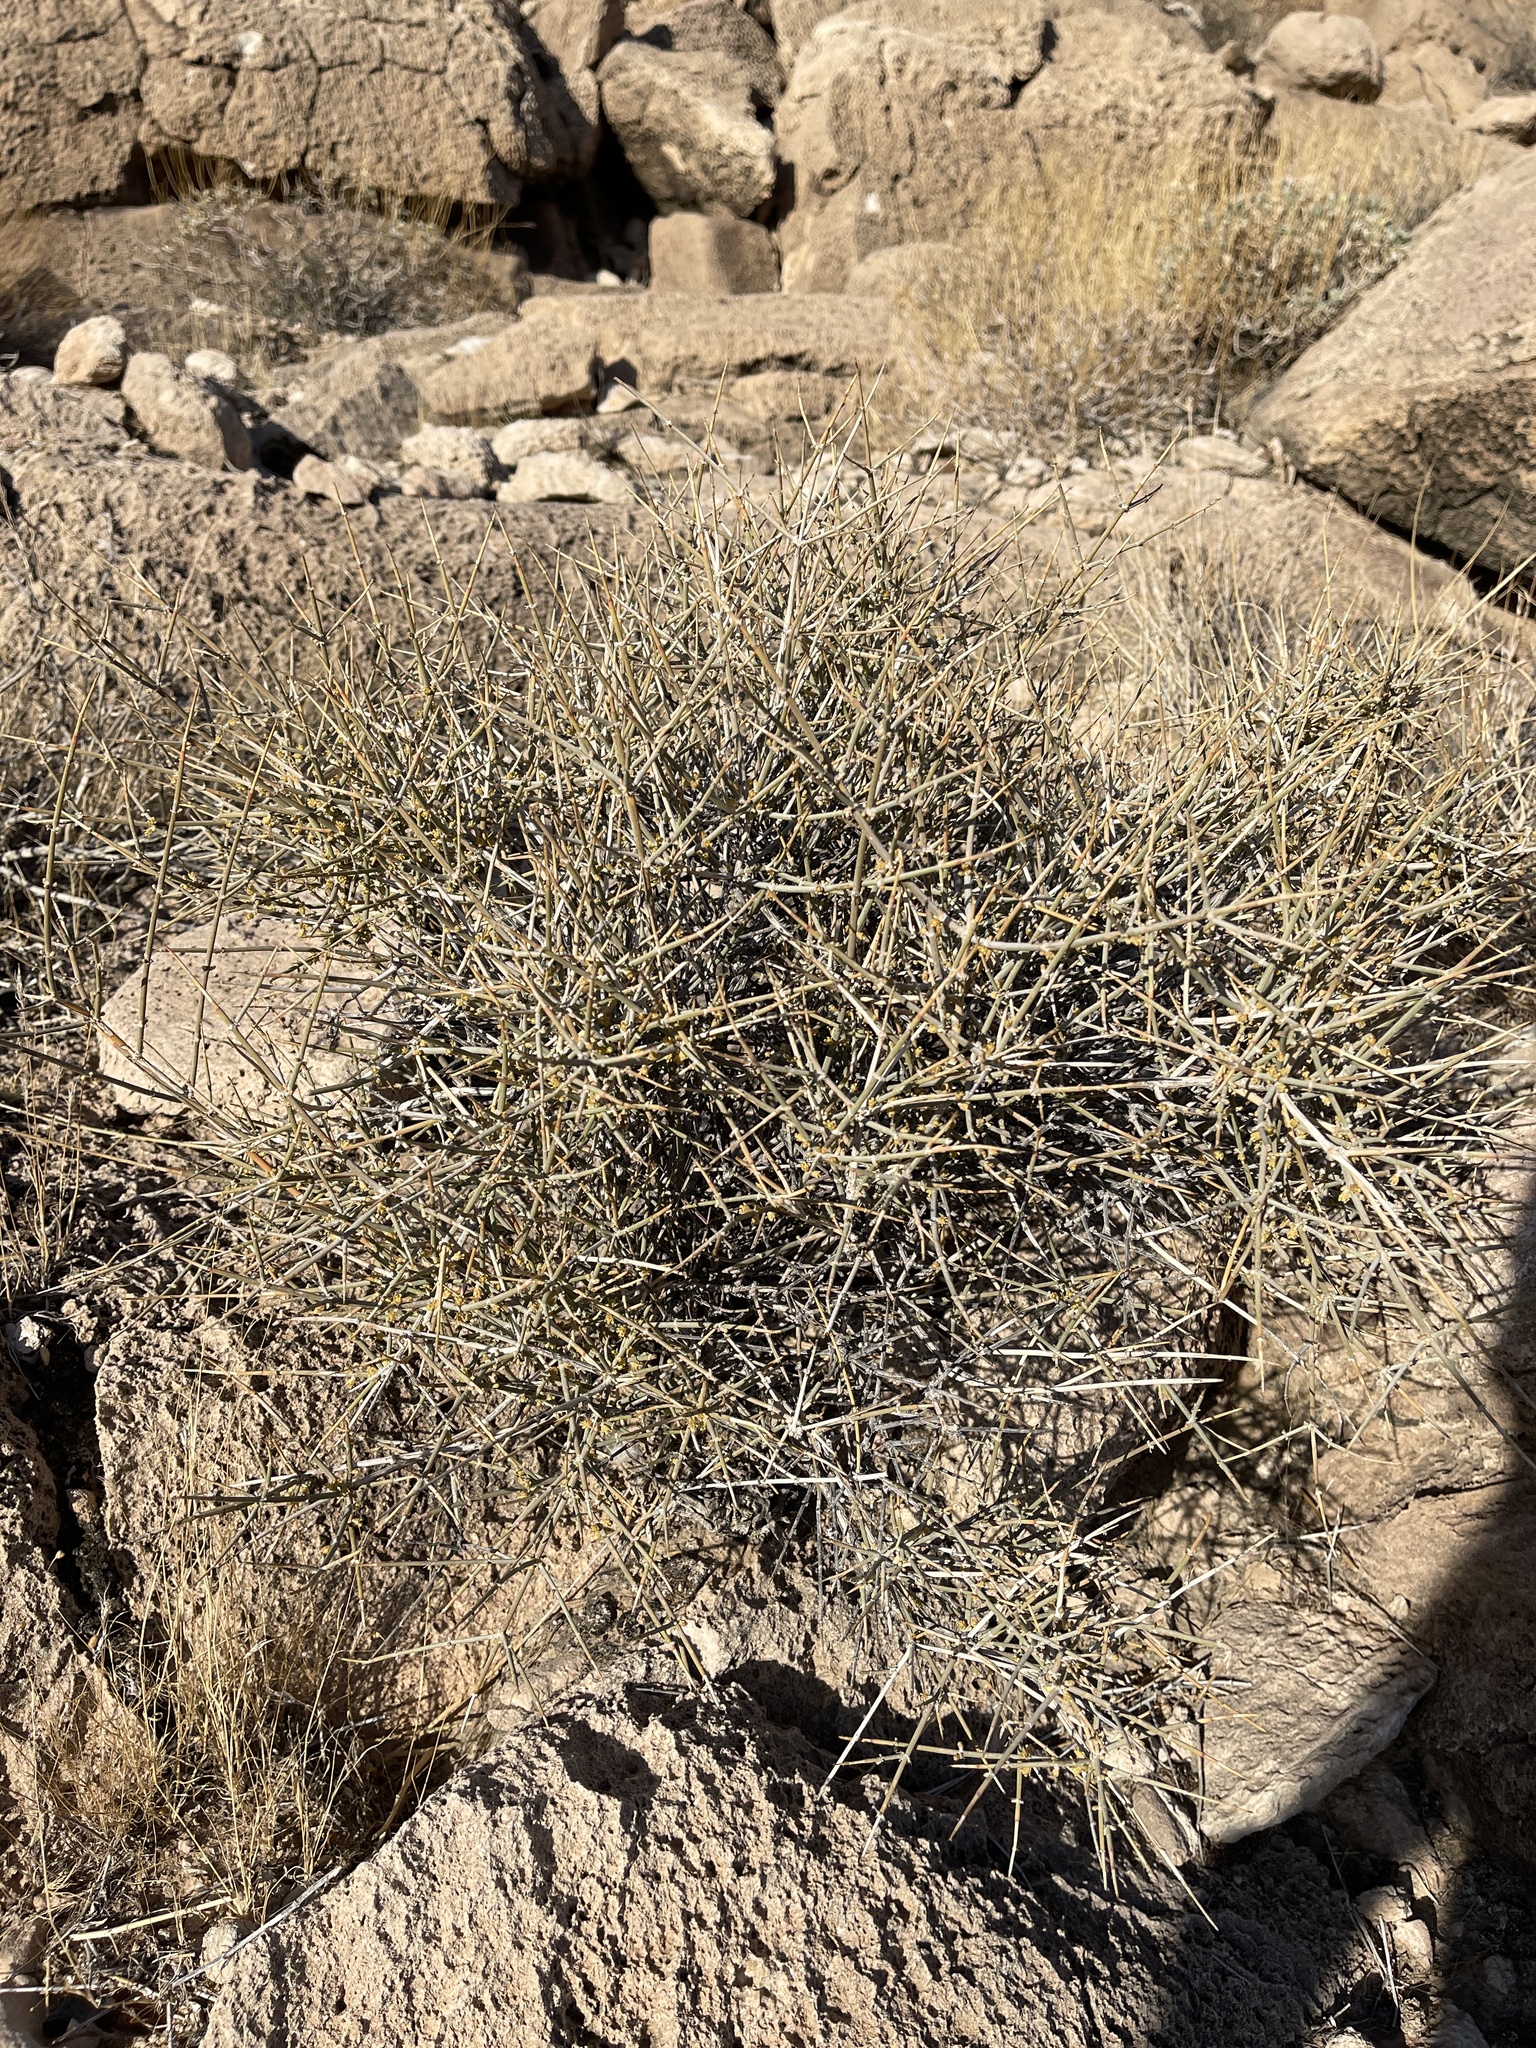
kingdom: Plantae
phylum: Tracheophyta
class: Gnetopsida
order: Ephedrales
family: Ephedraceae
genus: Ephedra
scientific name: Ephedra nevadensis
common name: Gray ephedra
